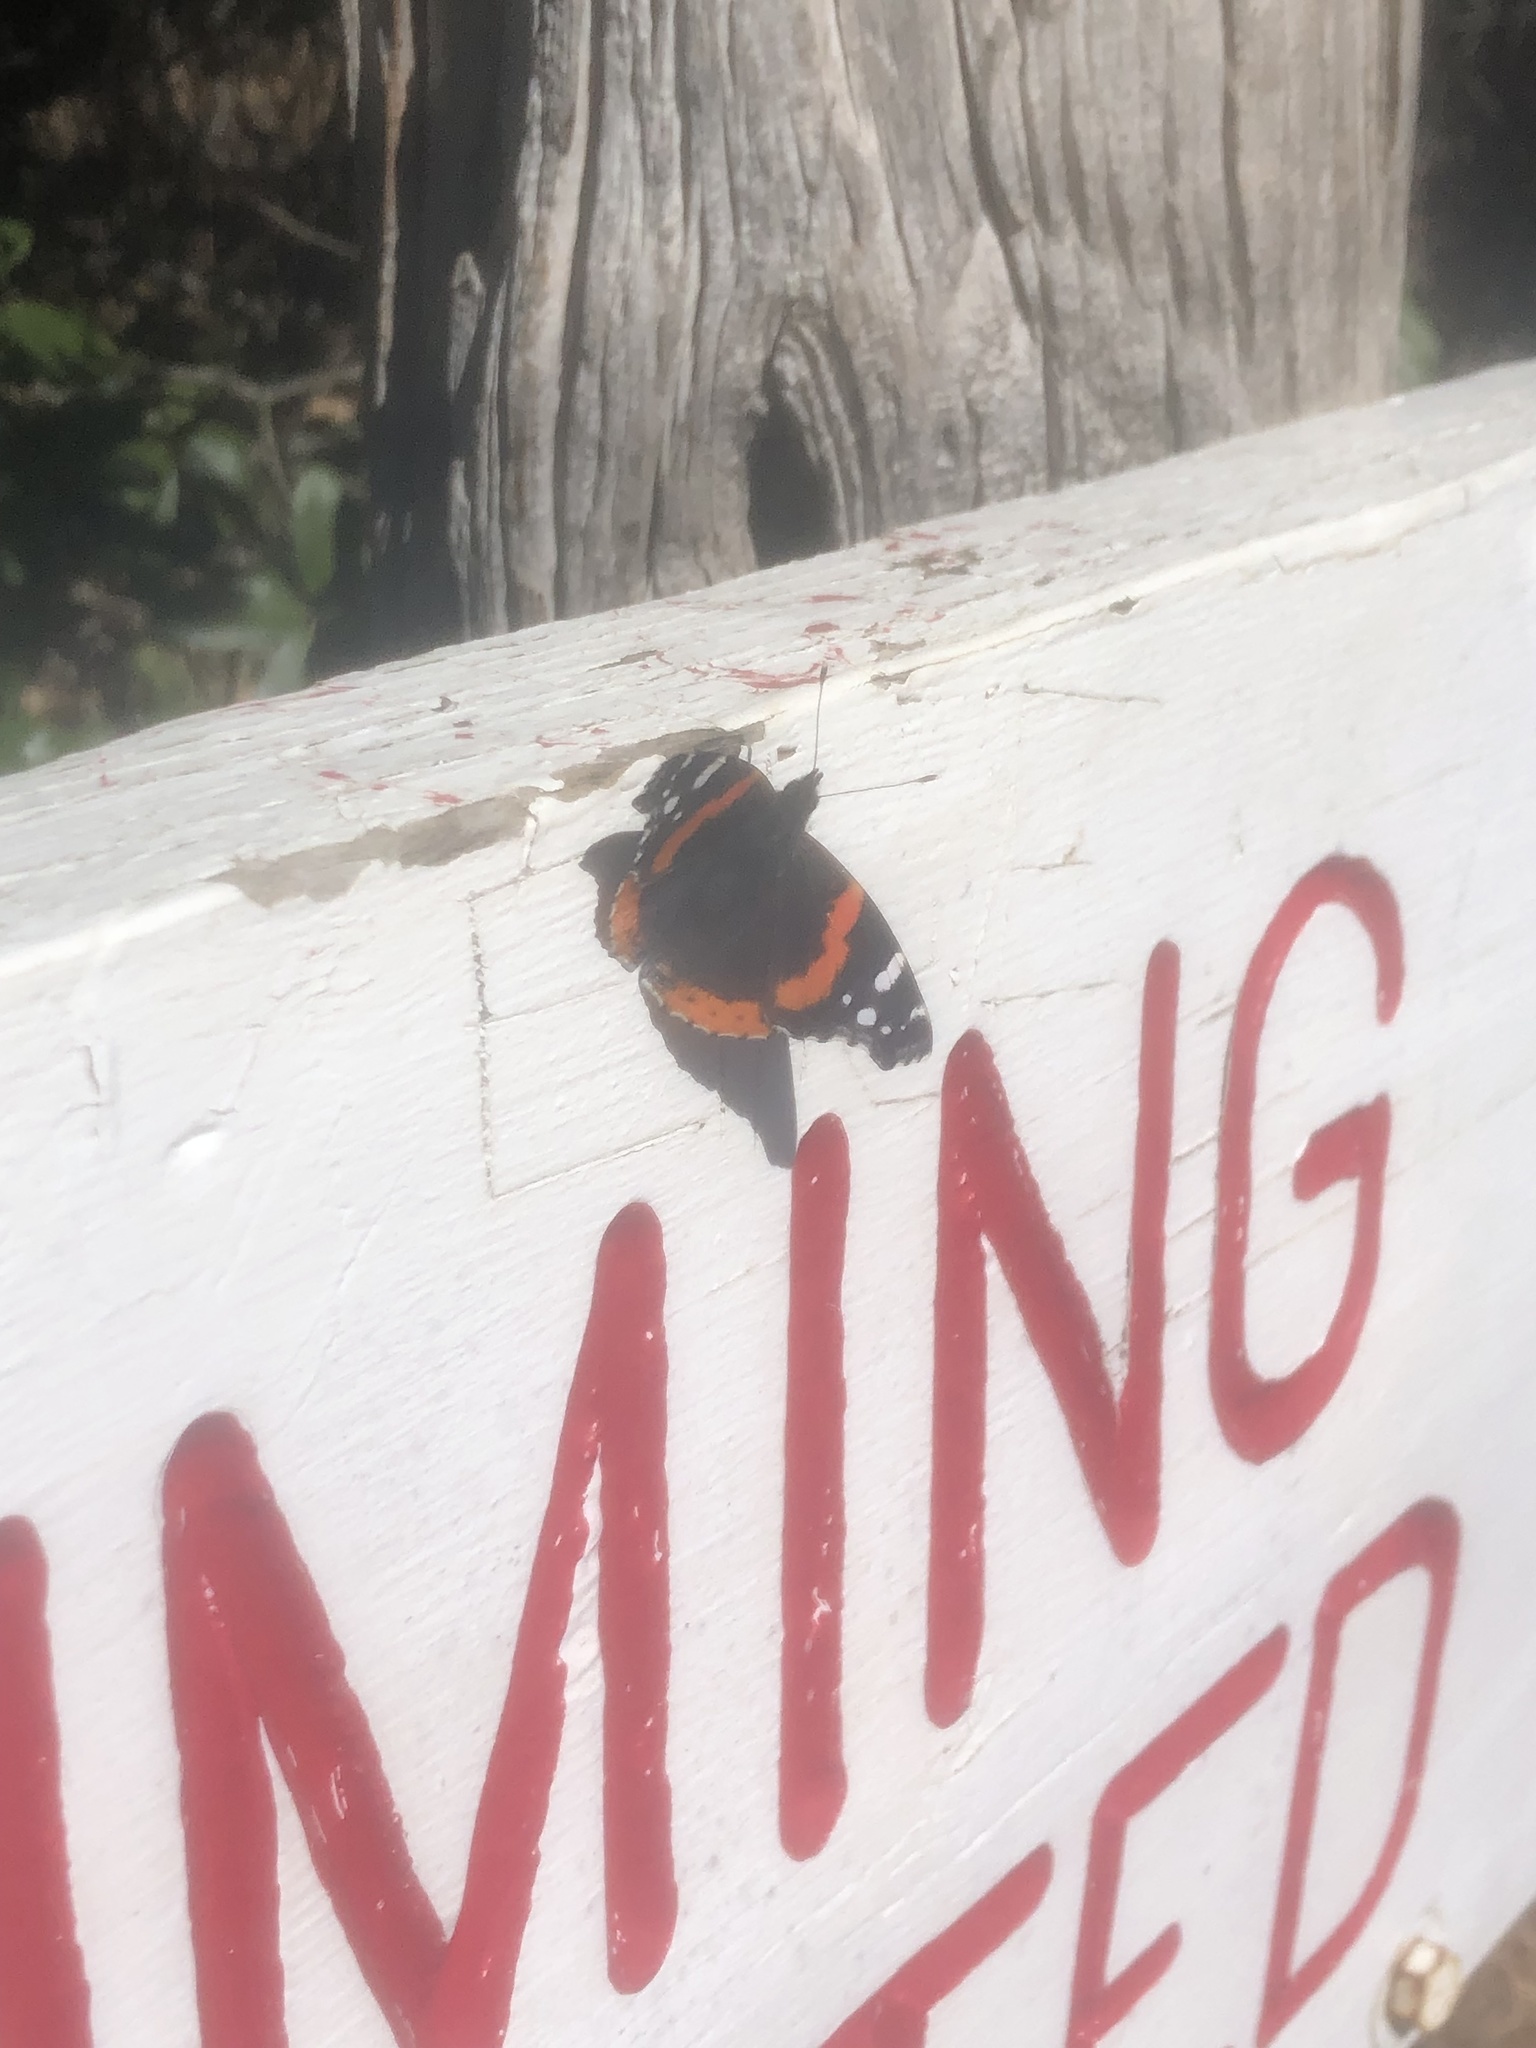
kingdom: Animalia
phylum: Arthropoda
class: Insecta
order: Lepidoptera
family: Nymphalidae
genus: Vanessa
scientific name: Vanessa atalanta
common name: Red admiral
